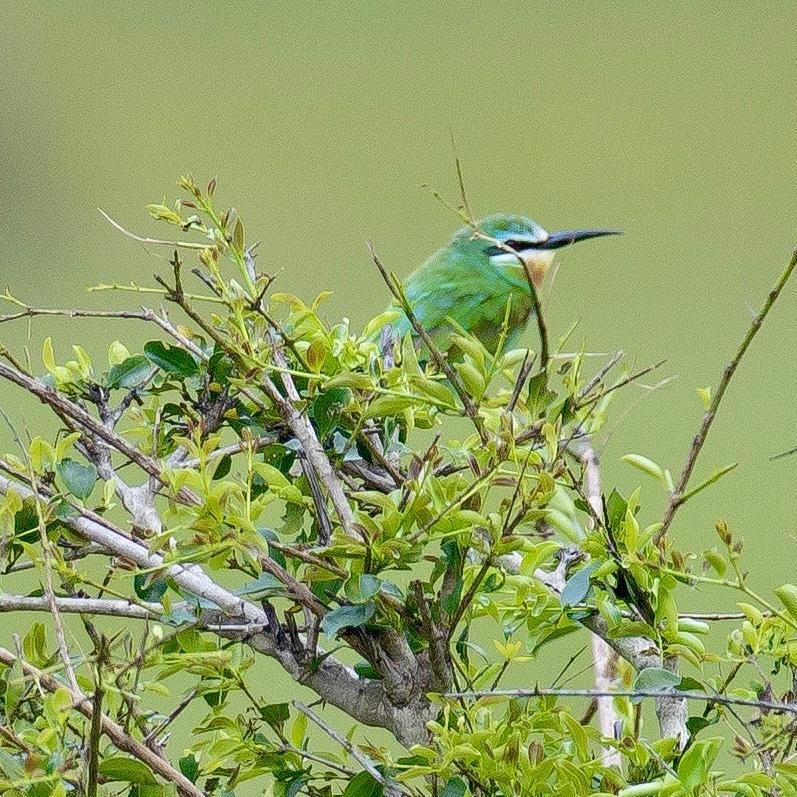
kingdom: Animalia
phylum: Chordata
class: Aves
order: Coraciiformes
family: Meropidae
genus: Merops
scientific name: Merops persicus
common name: Blue-cheeked bee-eater
